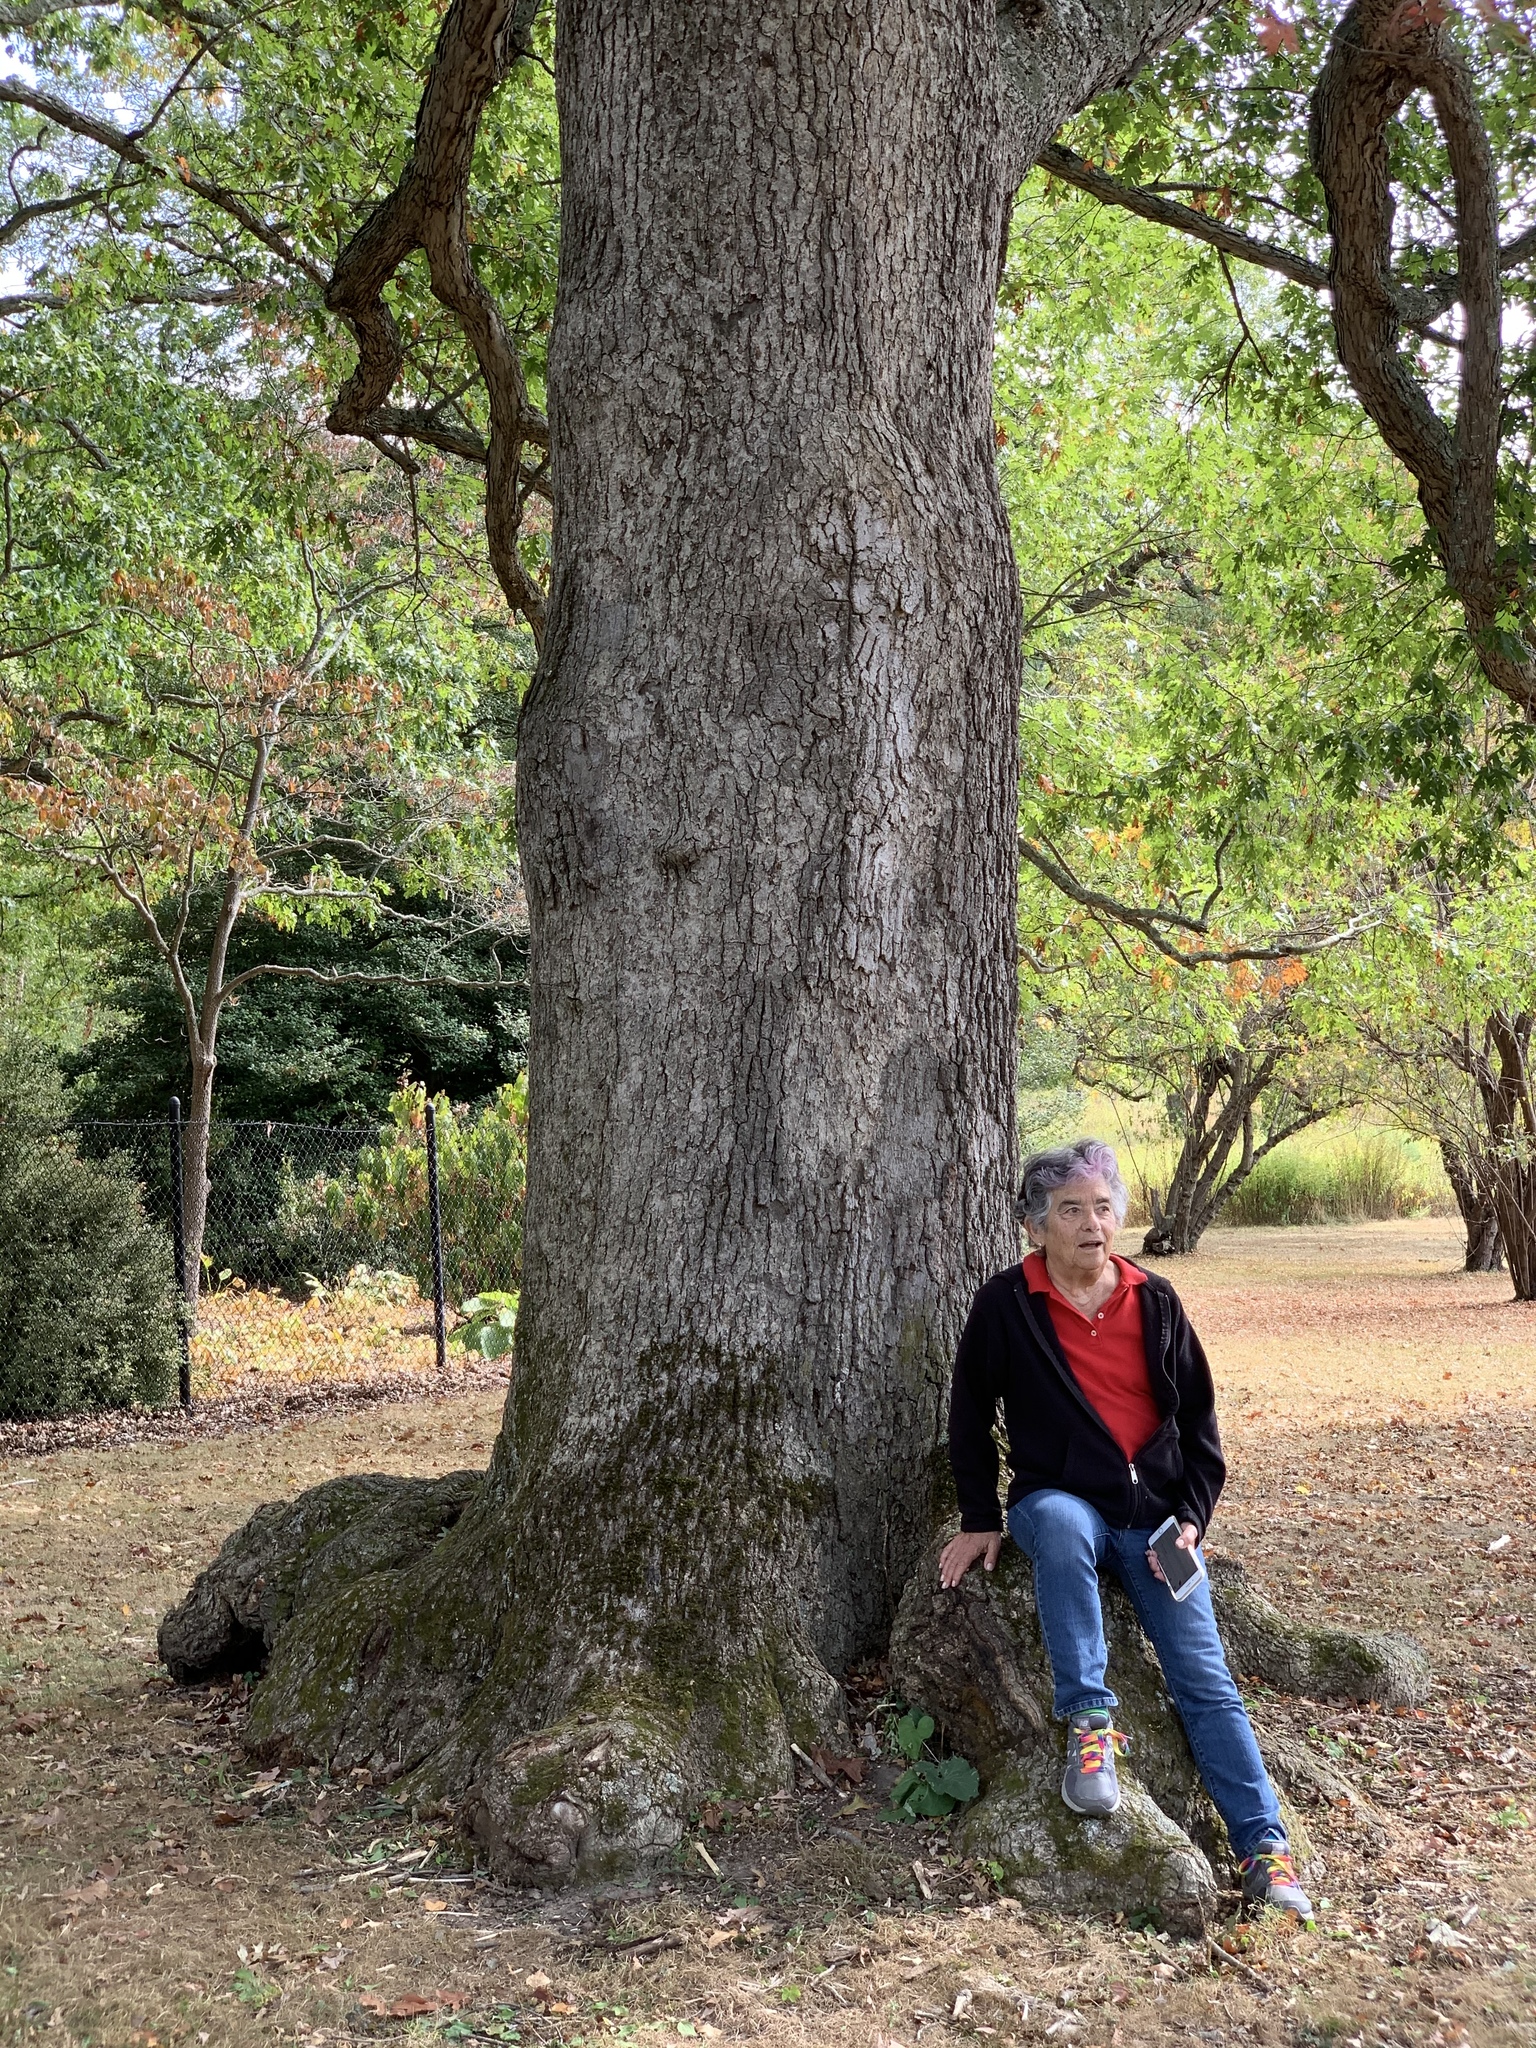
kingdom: Plantae
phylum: Tracheophyta
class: Magnoliopsida
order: Fagales
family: Fagaceae
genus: Quercus
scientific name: Quercus alba
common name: White oak
